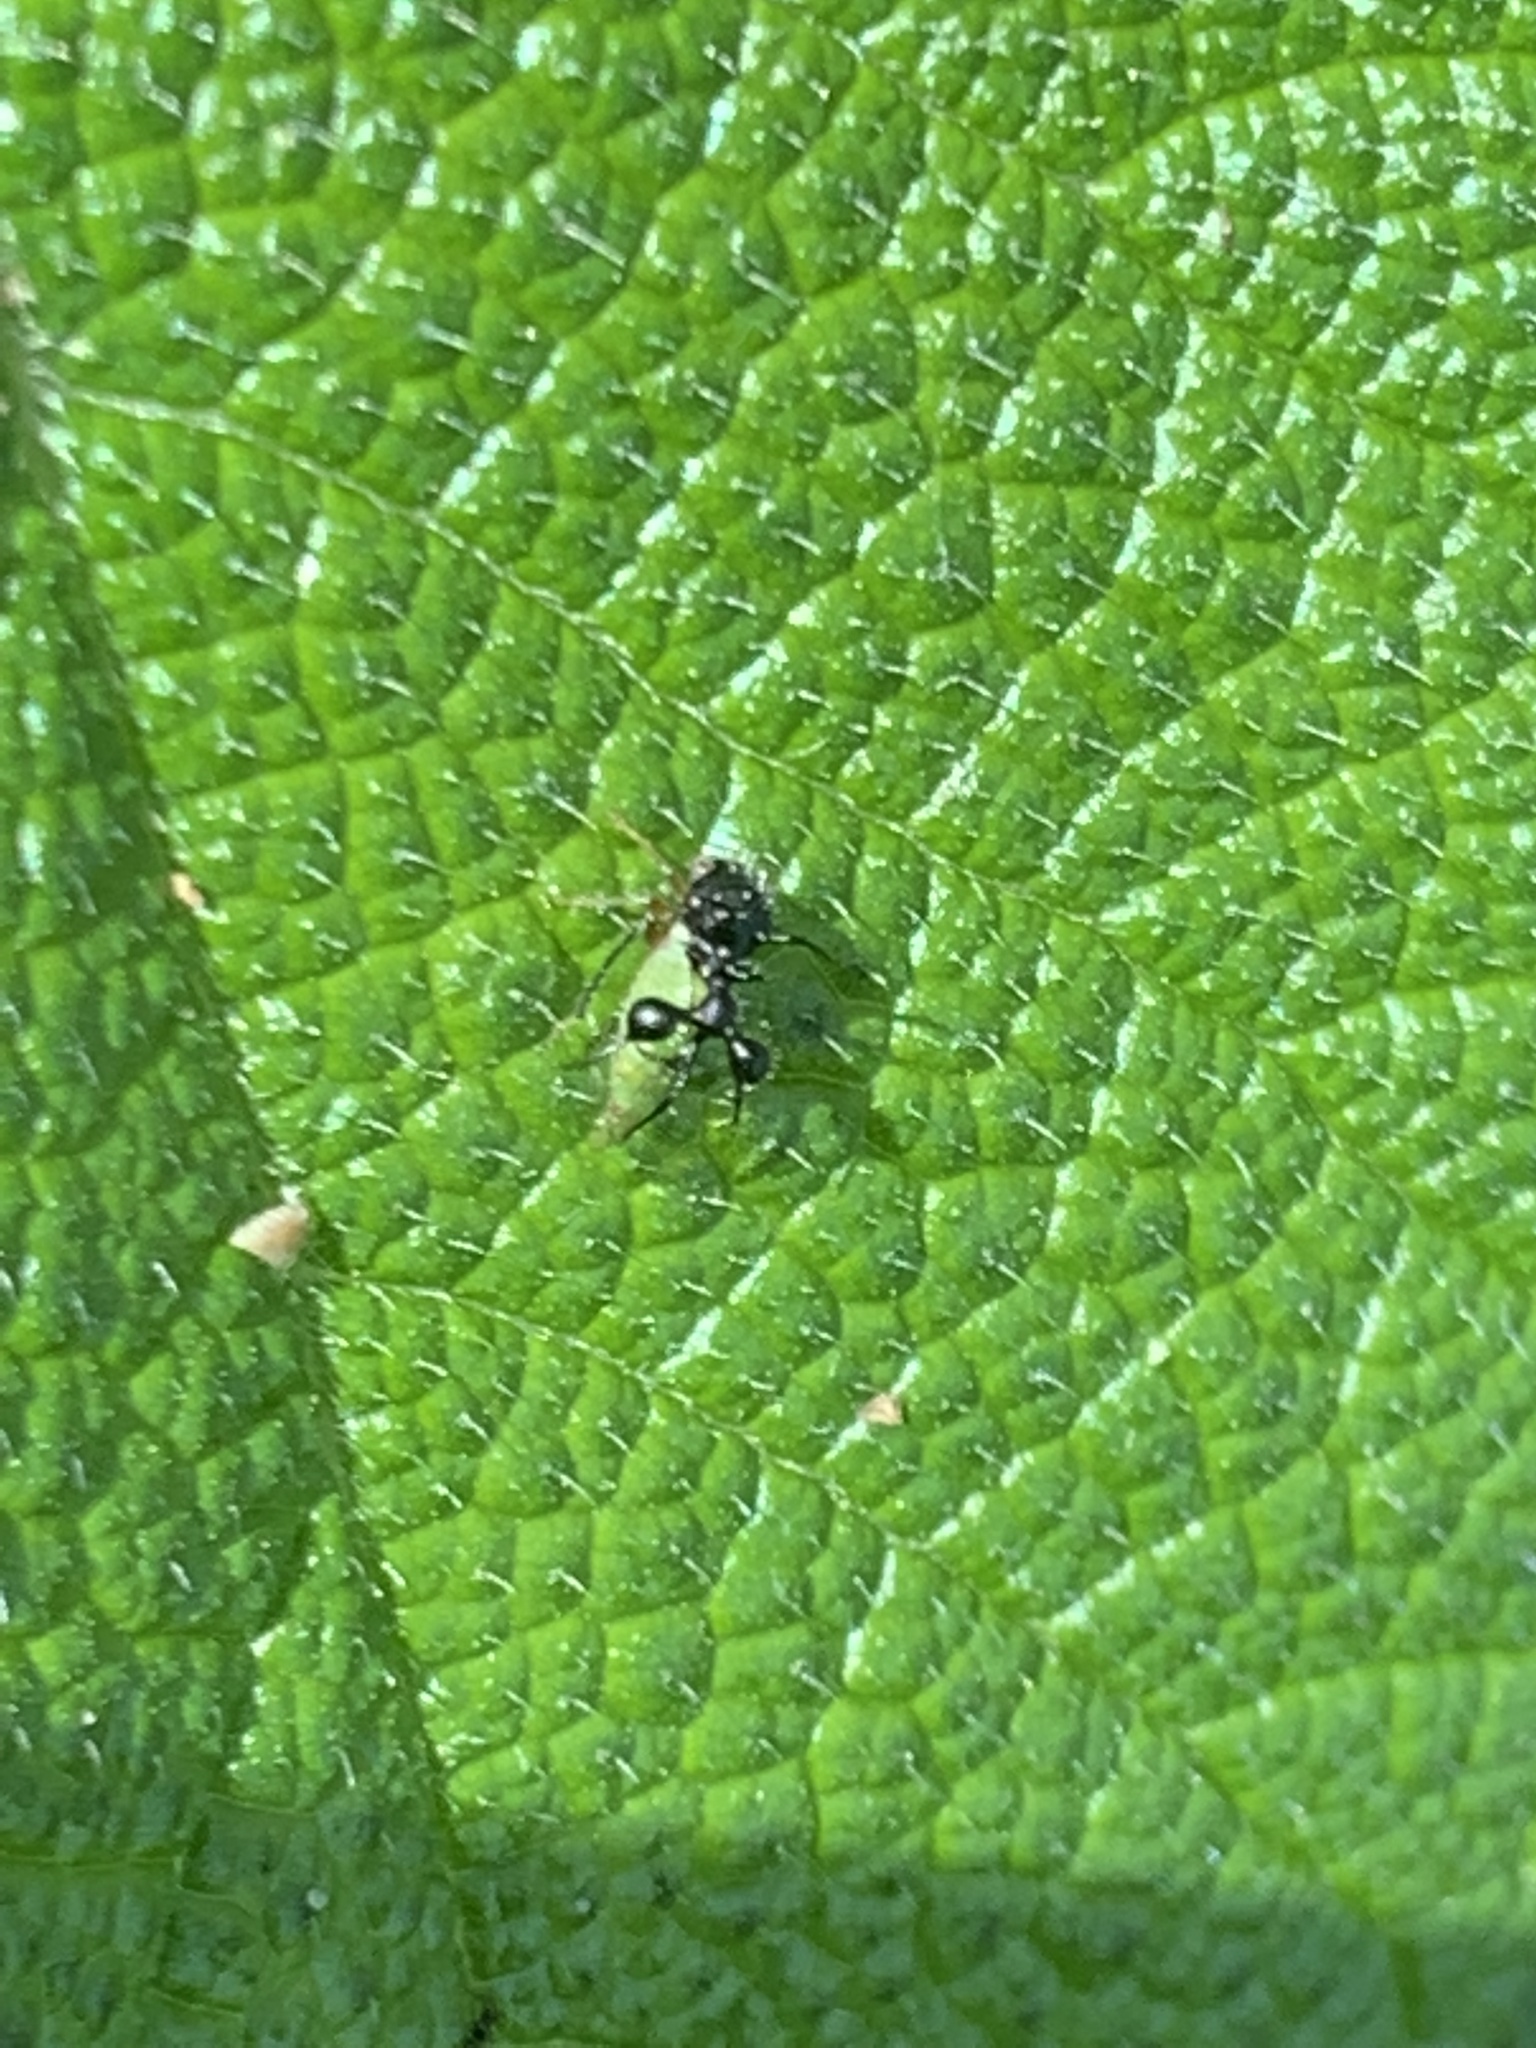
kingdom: Animalia
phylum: Arthropoda
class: Insecta
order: Hemiptera
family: Membracidae
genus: Cyphonia
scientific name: Cyphonia clavata
